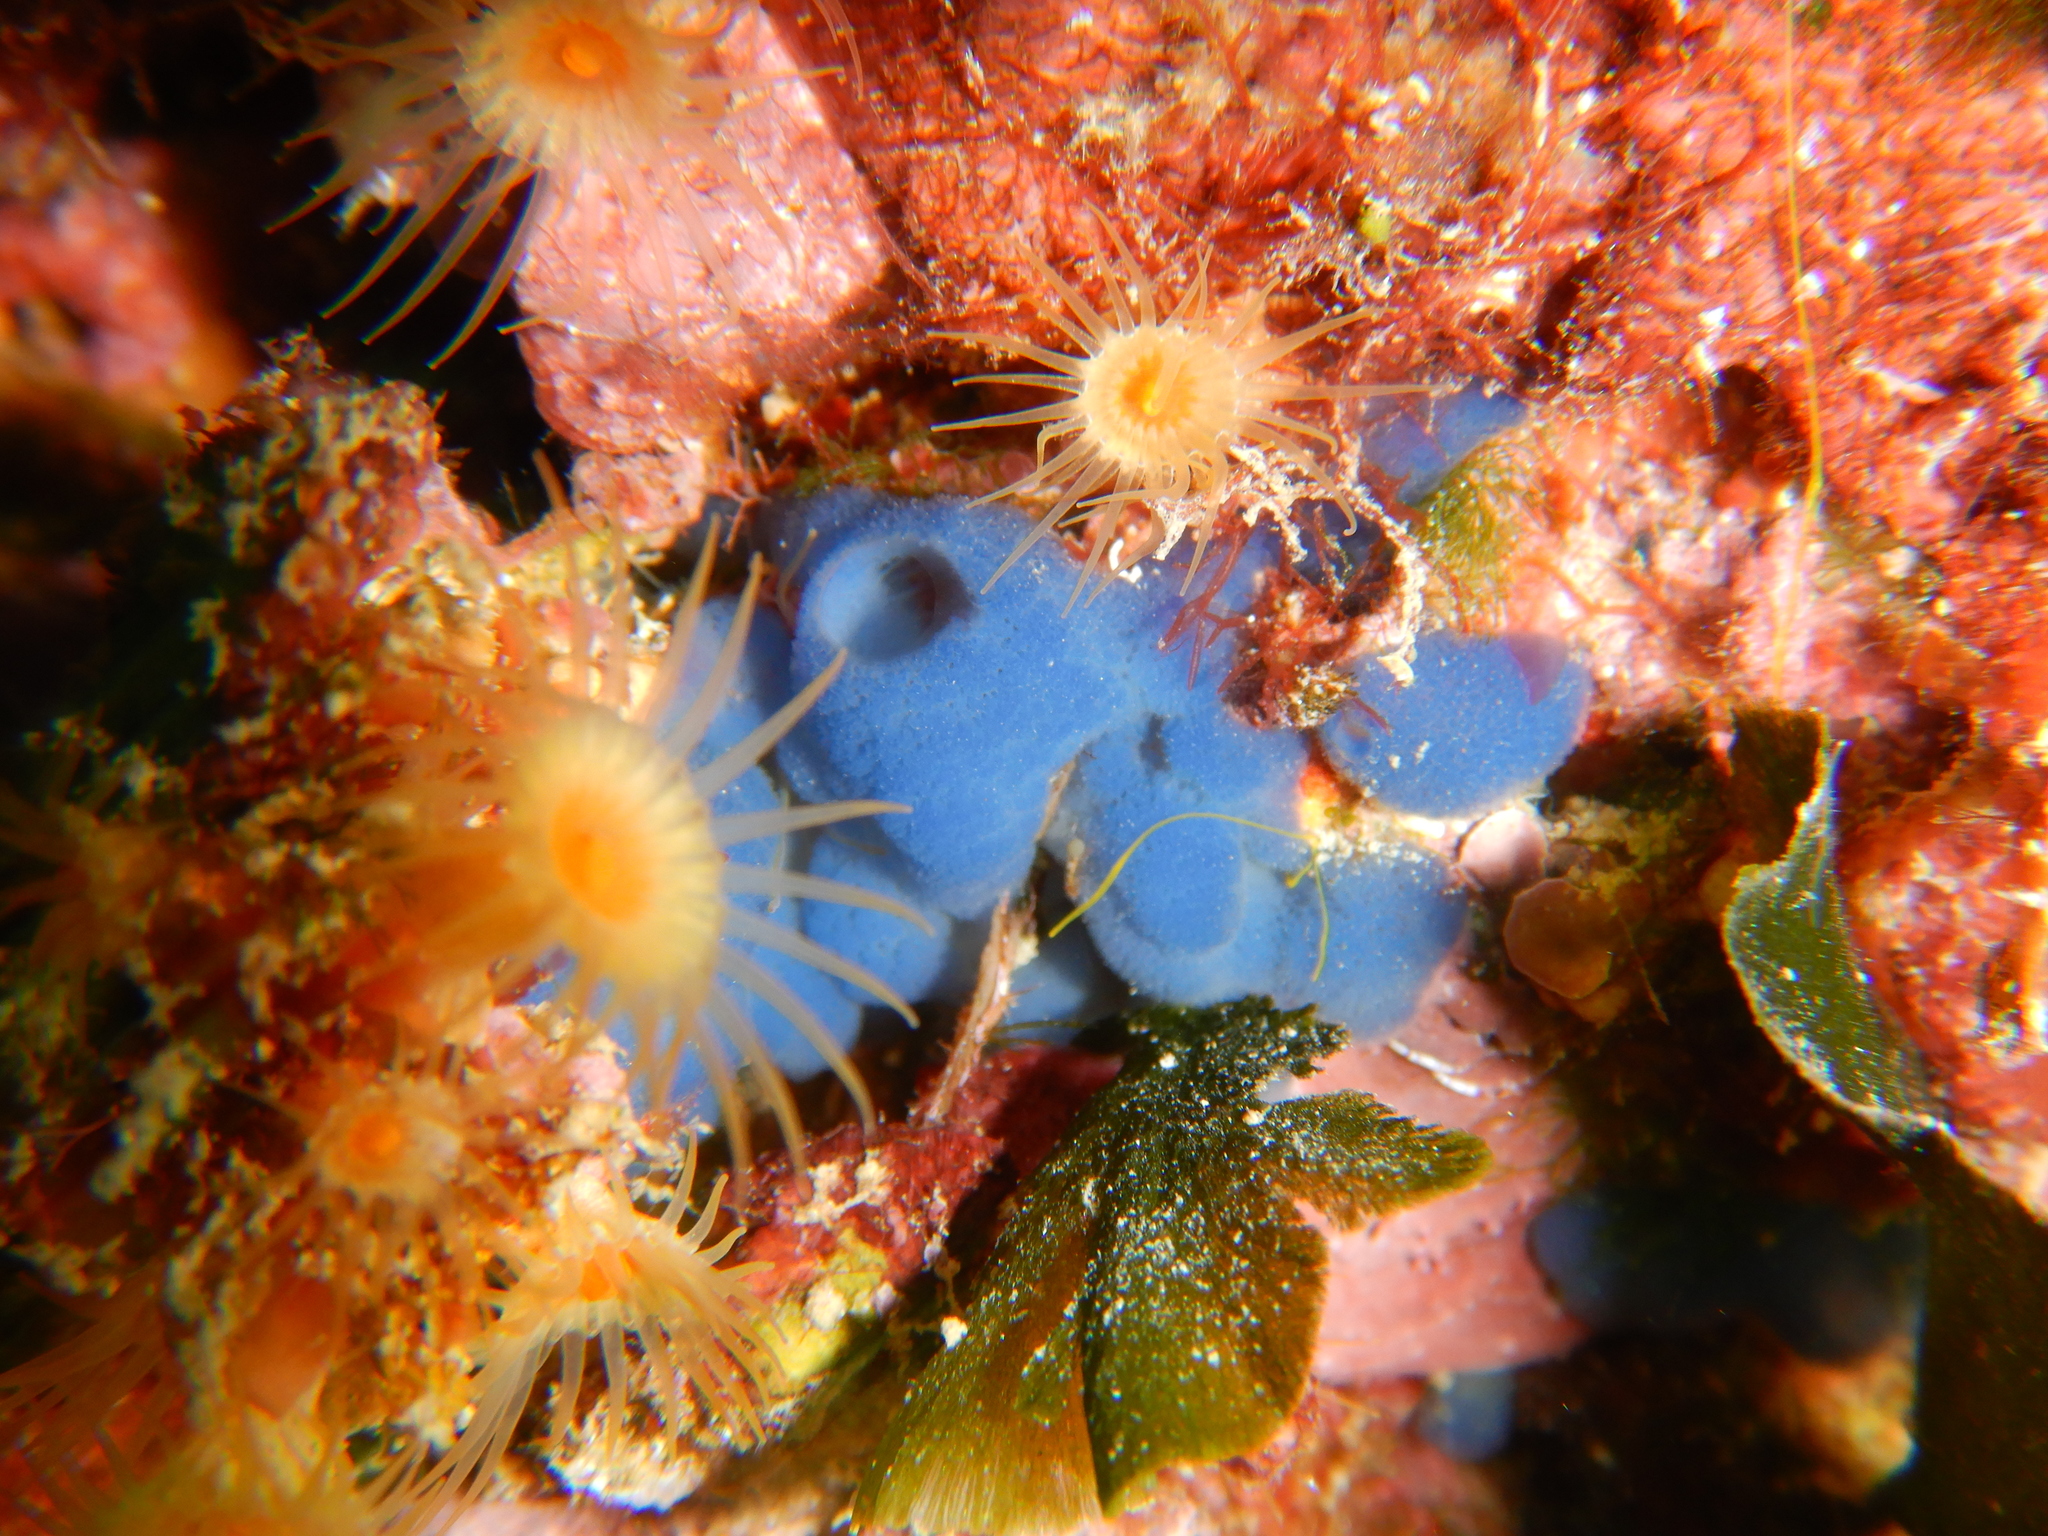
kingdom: Animalia
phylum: Porifera
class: Homoscleromorpha
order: Homosclerophorida
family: Oscarellidae
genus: Oscarella
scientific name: Oscarella lobularis
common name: Flesh sponge
